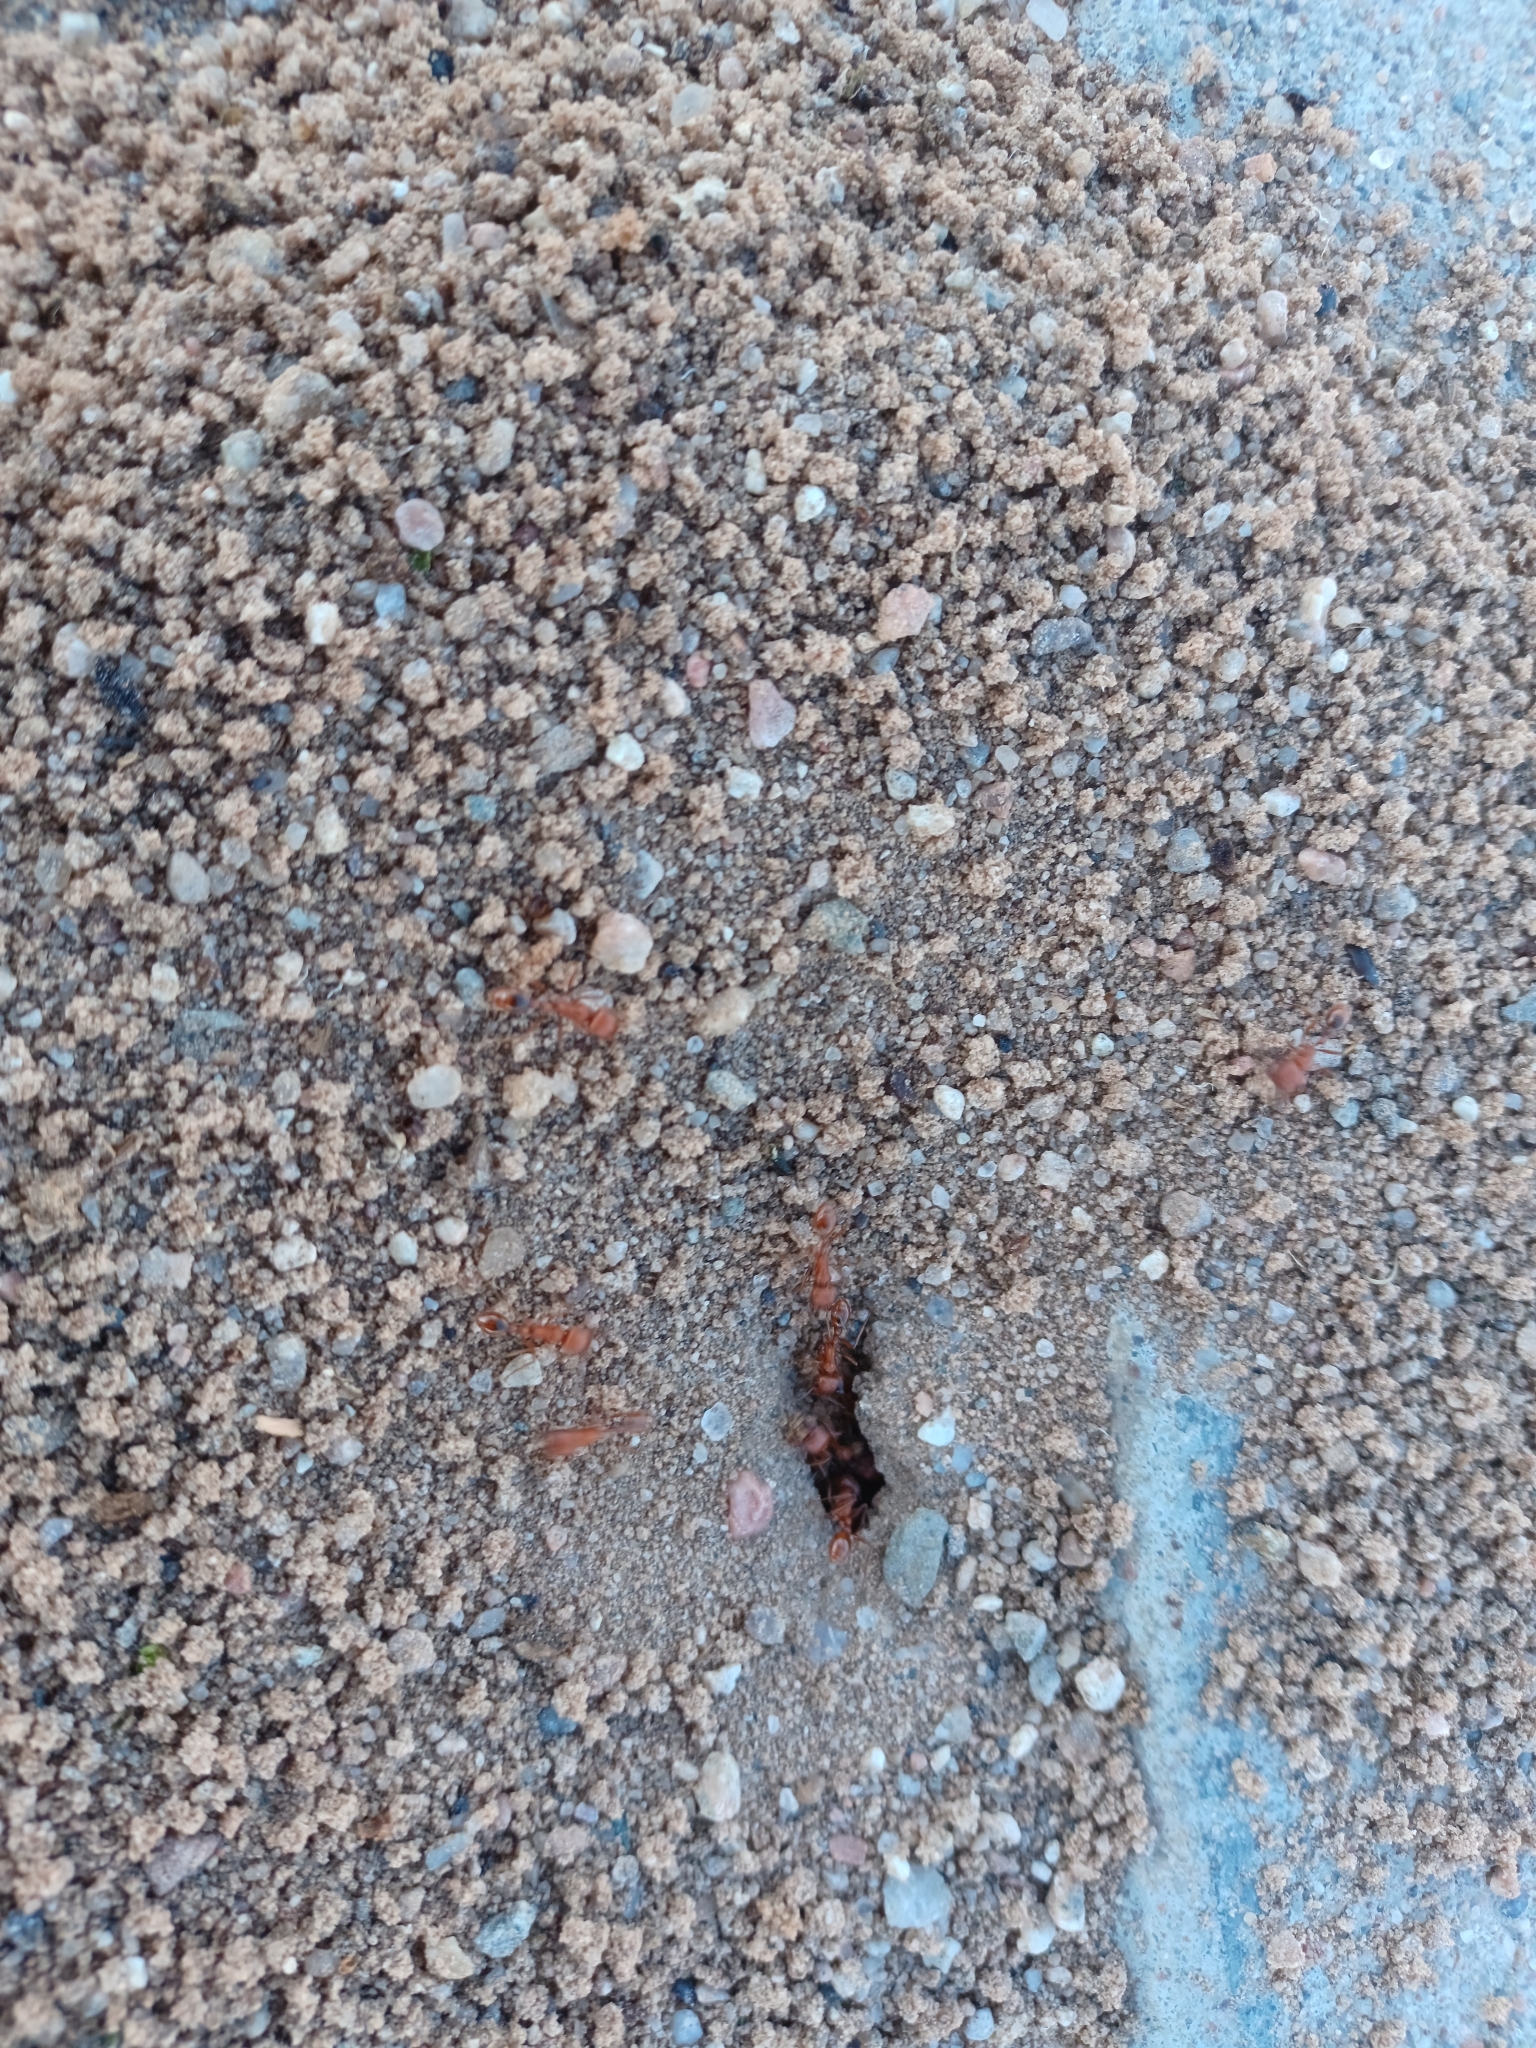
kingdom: Animalia
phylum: Arthropoda
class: Insecta
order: Hymenoptera
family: Formicidae
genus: Pogonomyrmex
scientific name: Pogonomyrmex
